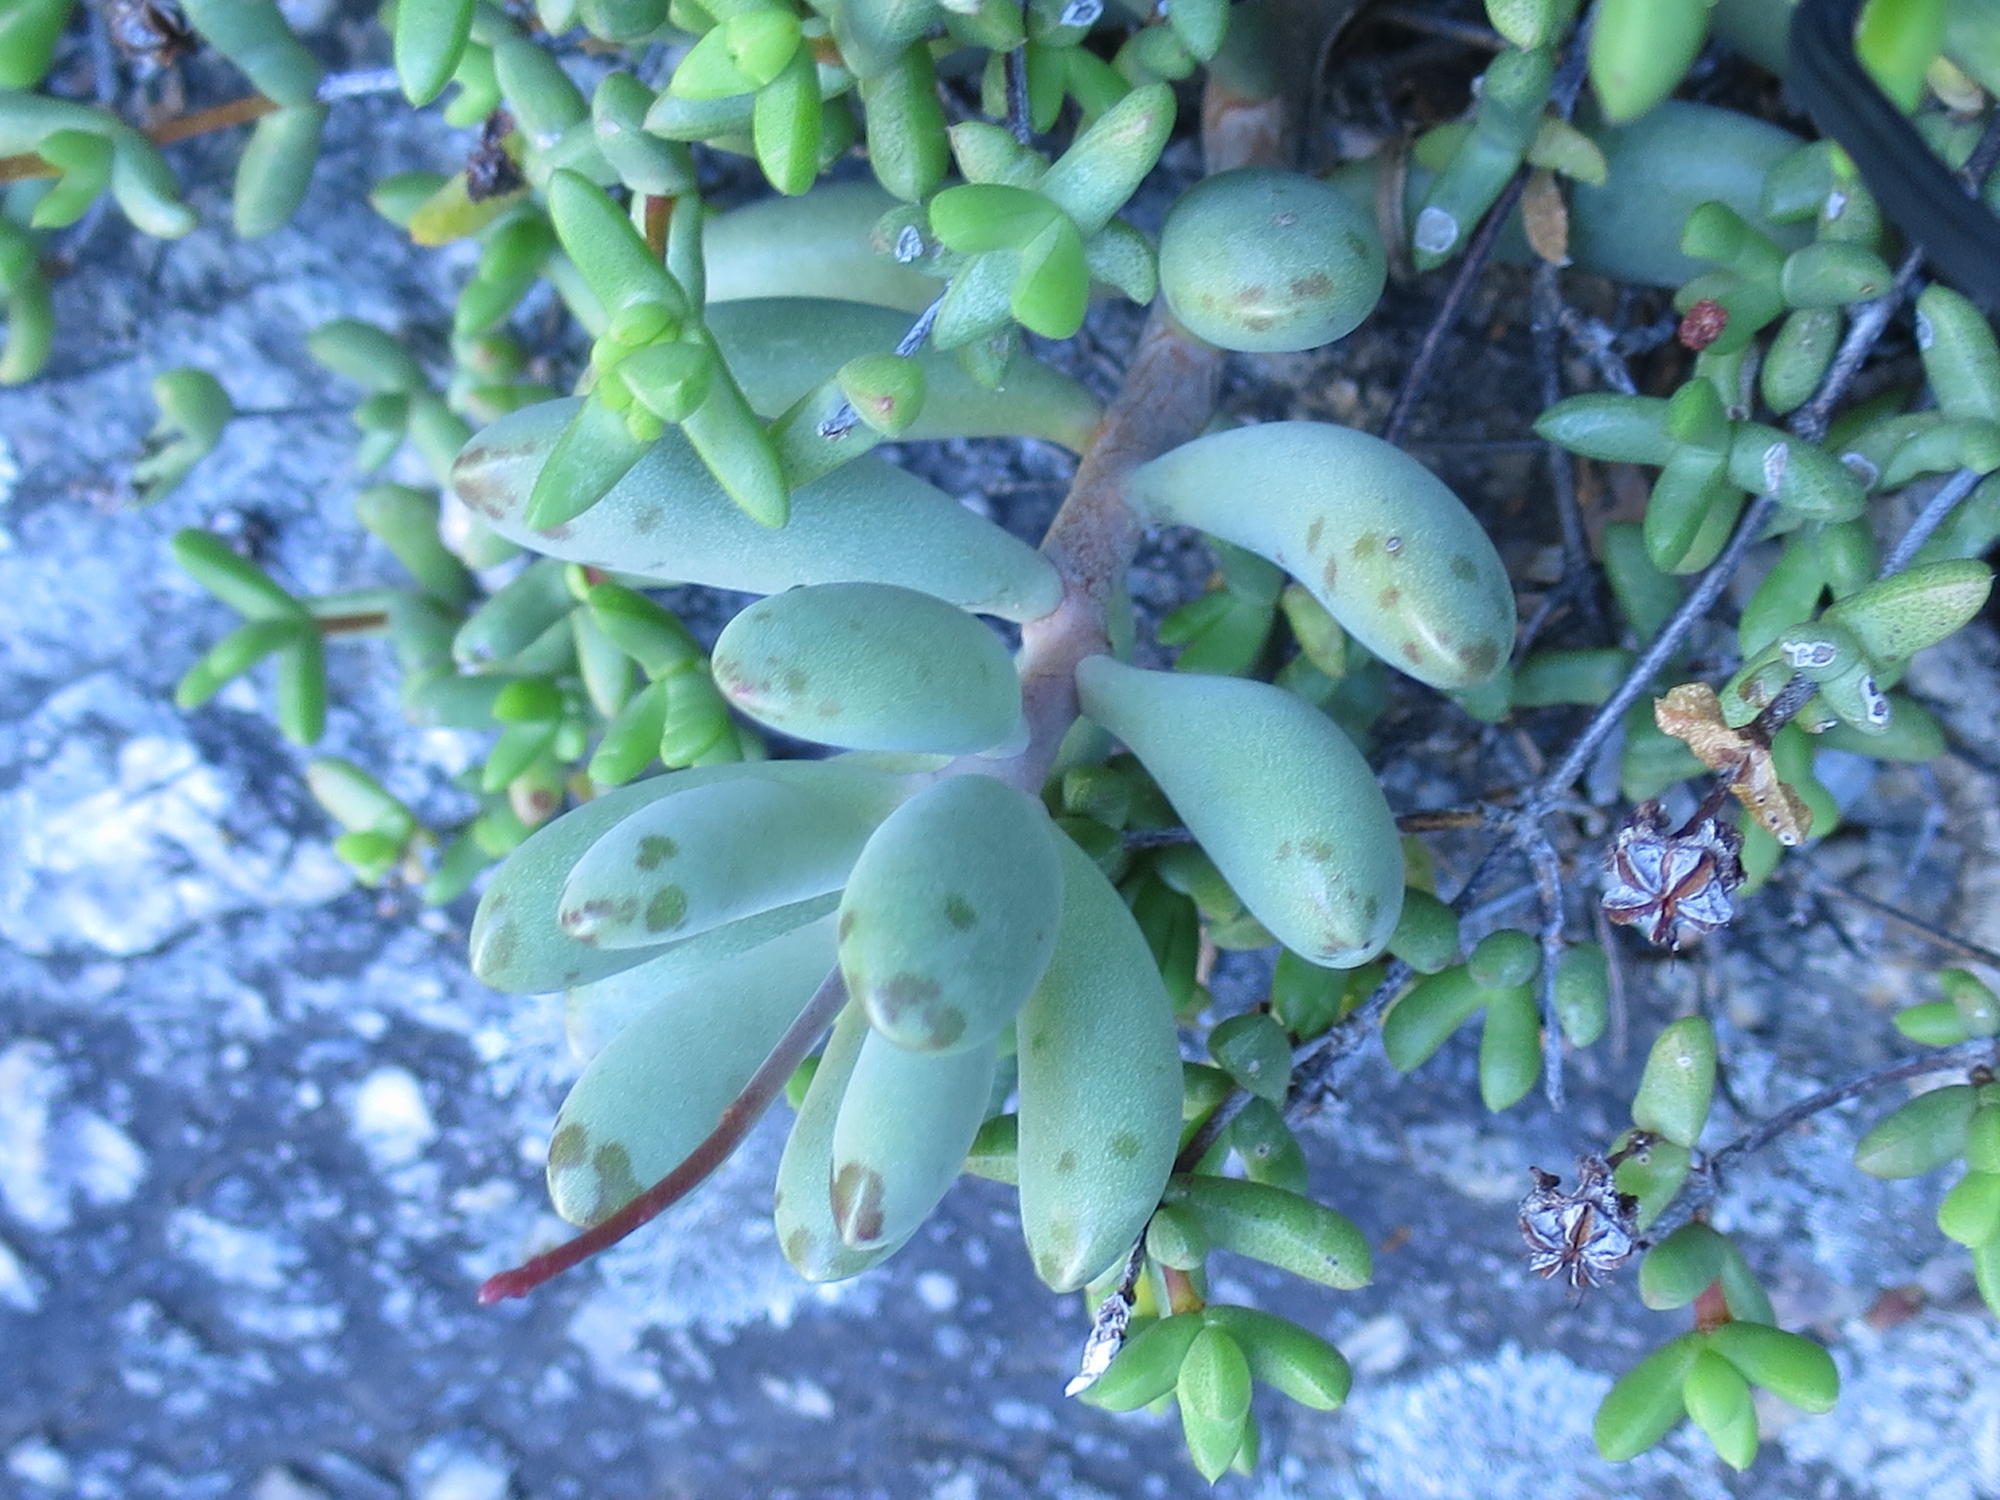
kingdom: Plantae
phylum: Tracheophyta
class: Magnoliopsida
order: Saxifragales
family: Crassulaceae
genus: Adromischus
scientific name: Adromischus mammillaris
